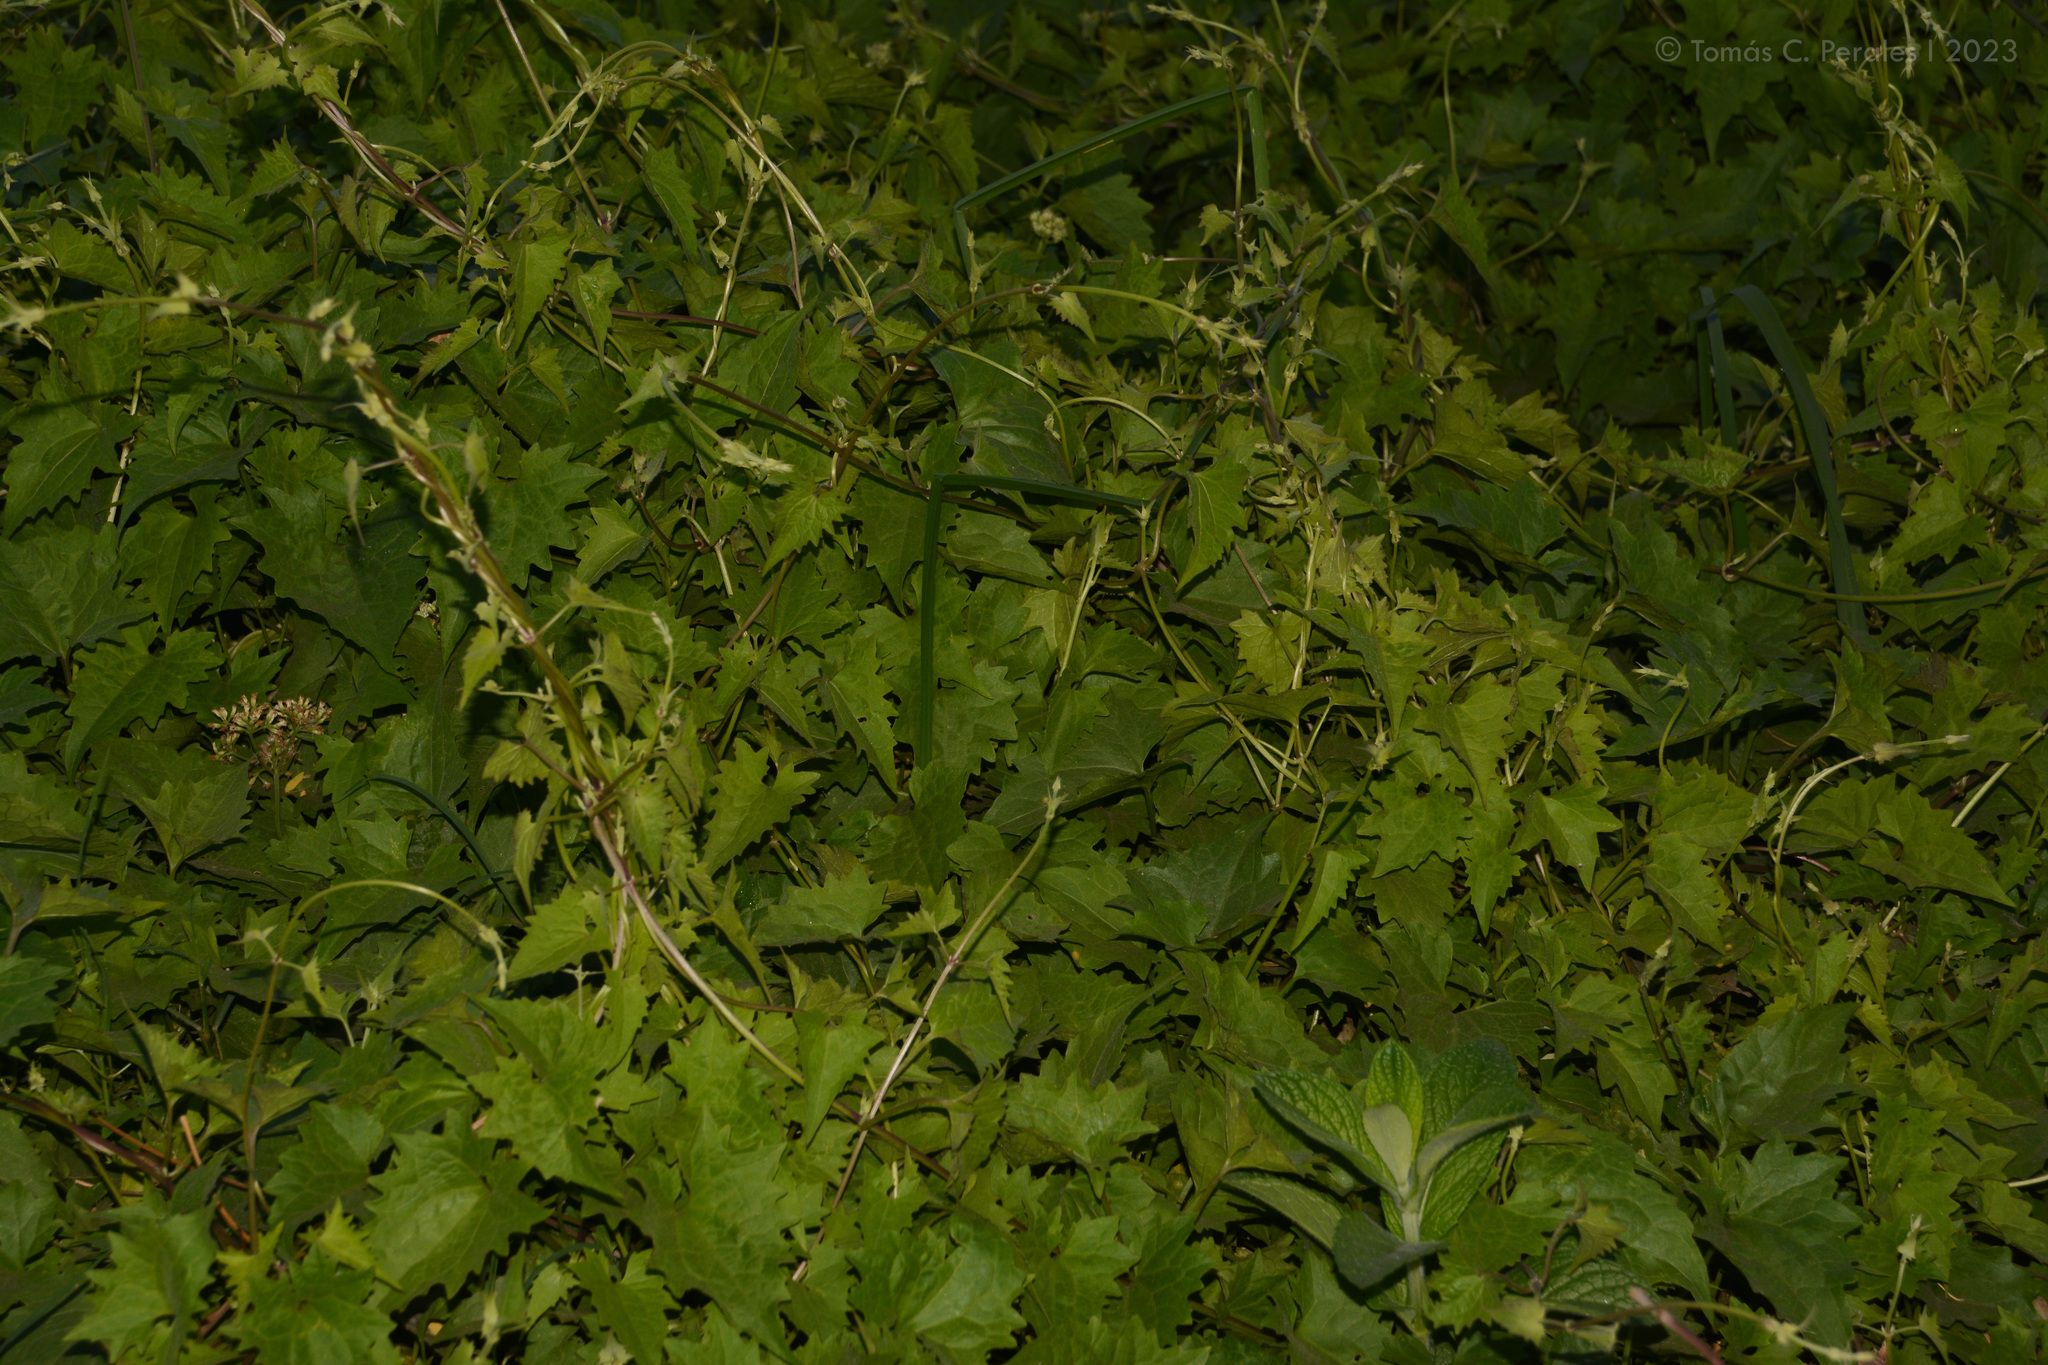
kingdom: Plantae
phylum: Tracheophyta
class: Magnoliopsida
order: Asterales
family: Asteraceae
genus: Mikania
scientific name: Mikania periplocifolia
